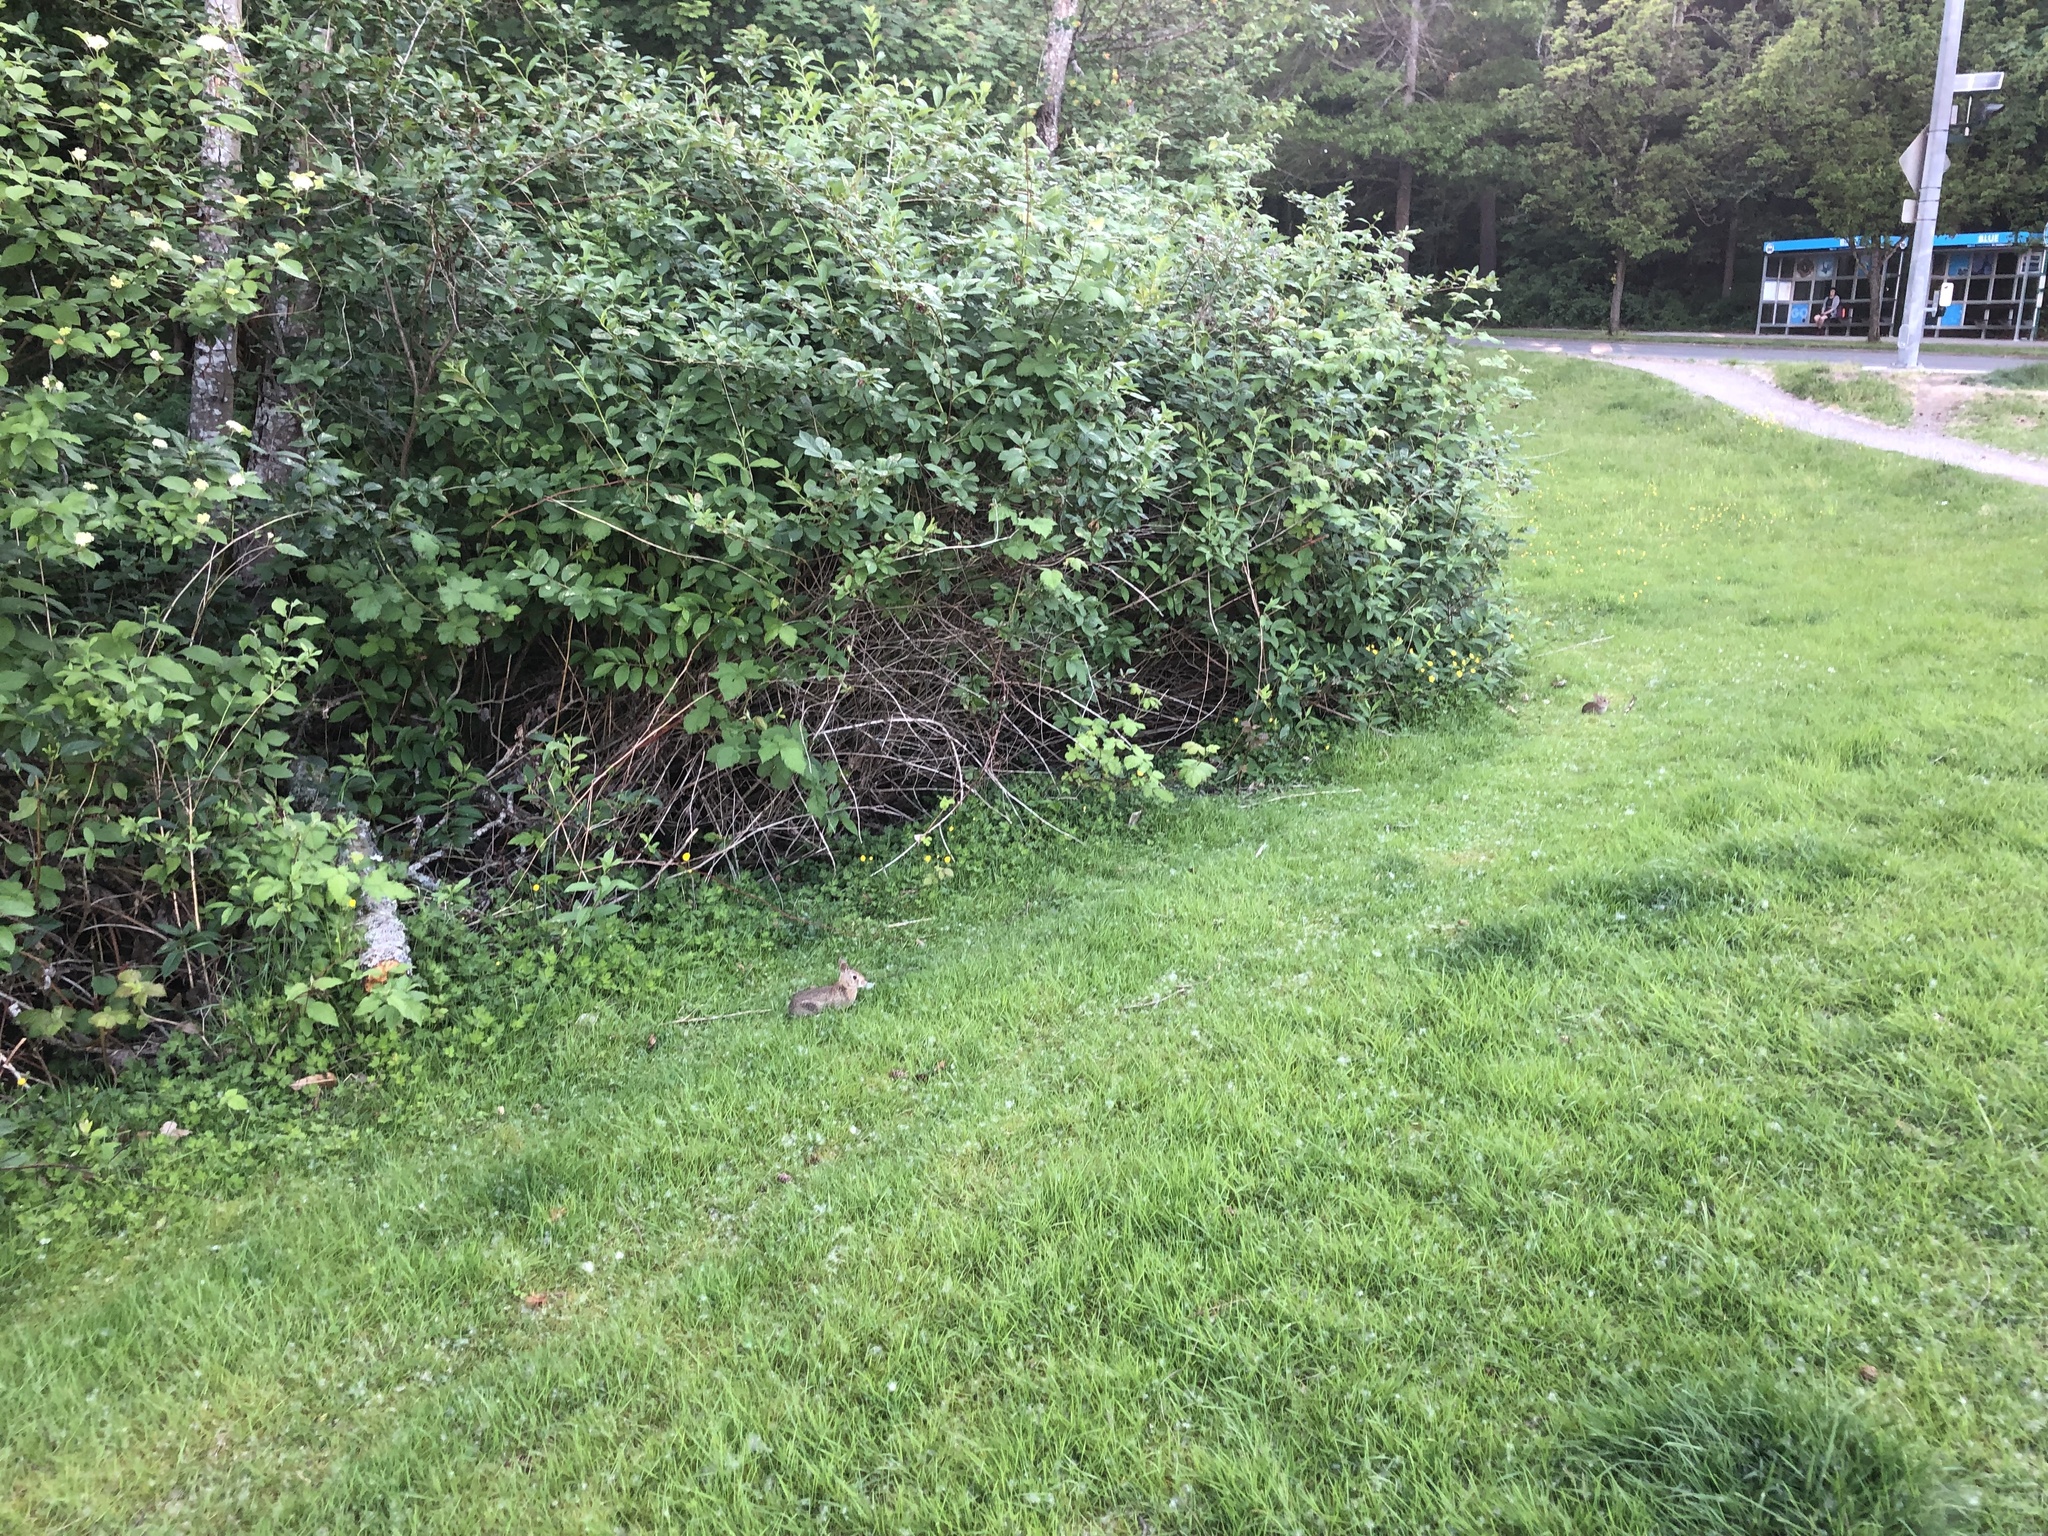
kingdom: Animalia
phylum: Chordata
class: Mammalia
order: Lagomorpha
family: Leporidae
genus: Sylvilagus
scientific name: Sylvilagus floridanus
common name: Eastern cottontail
